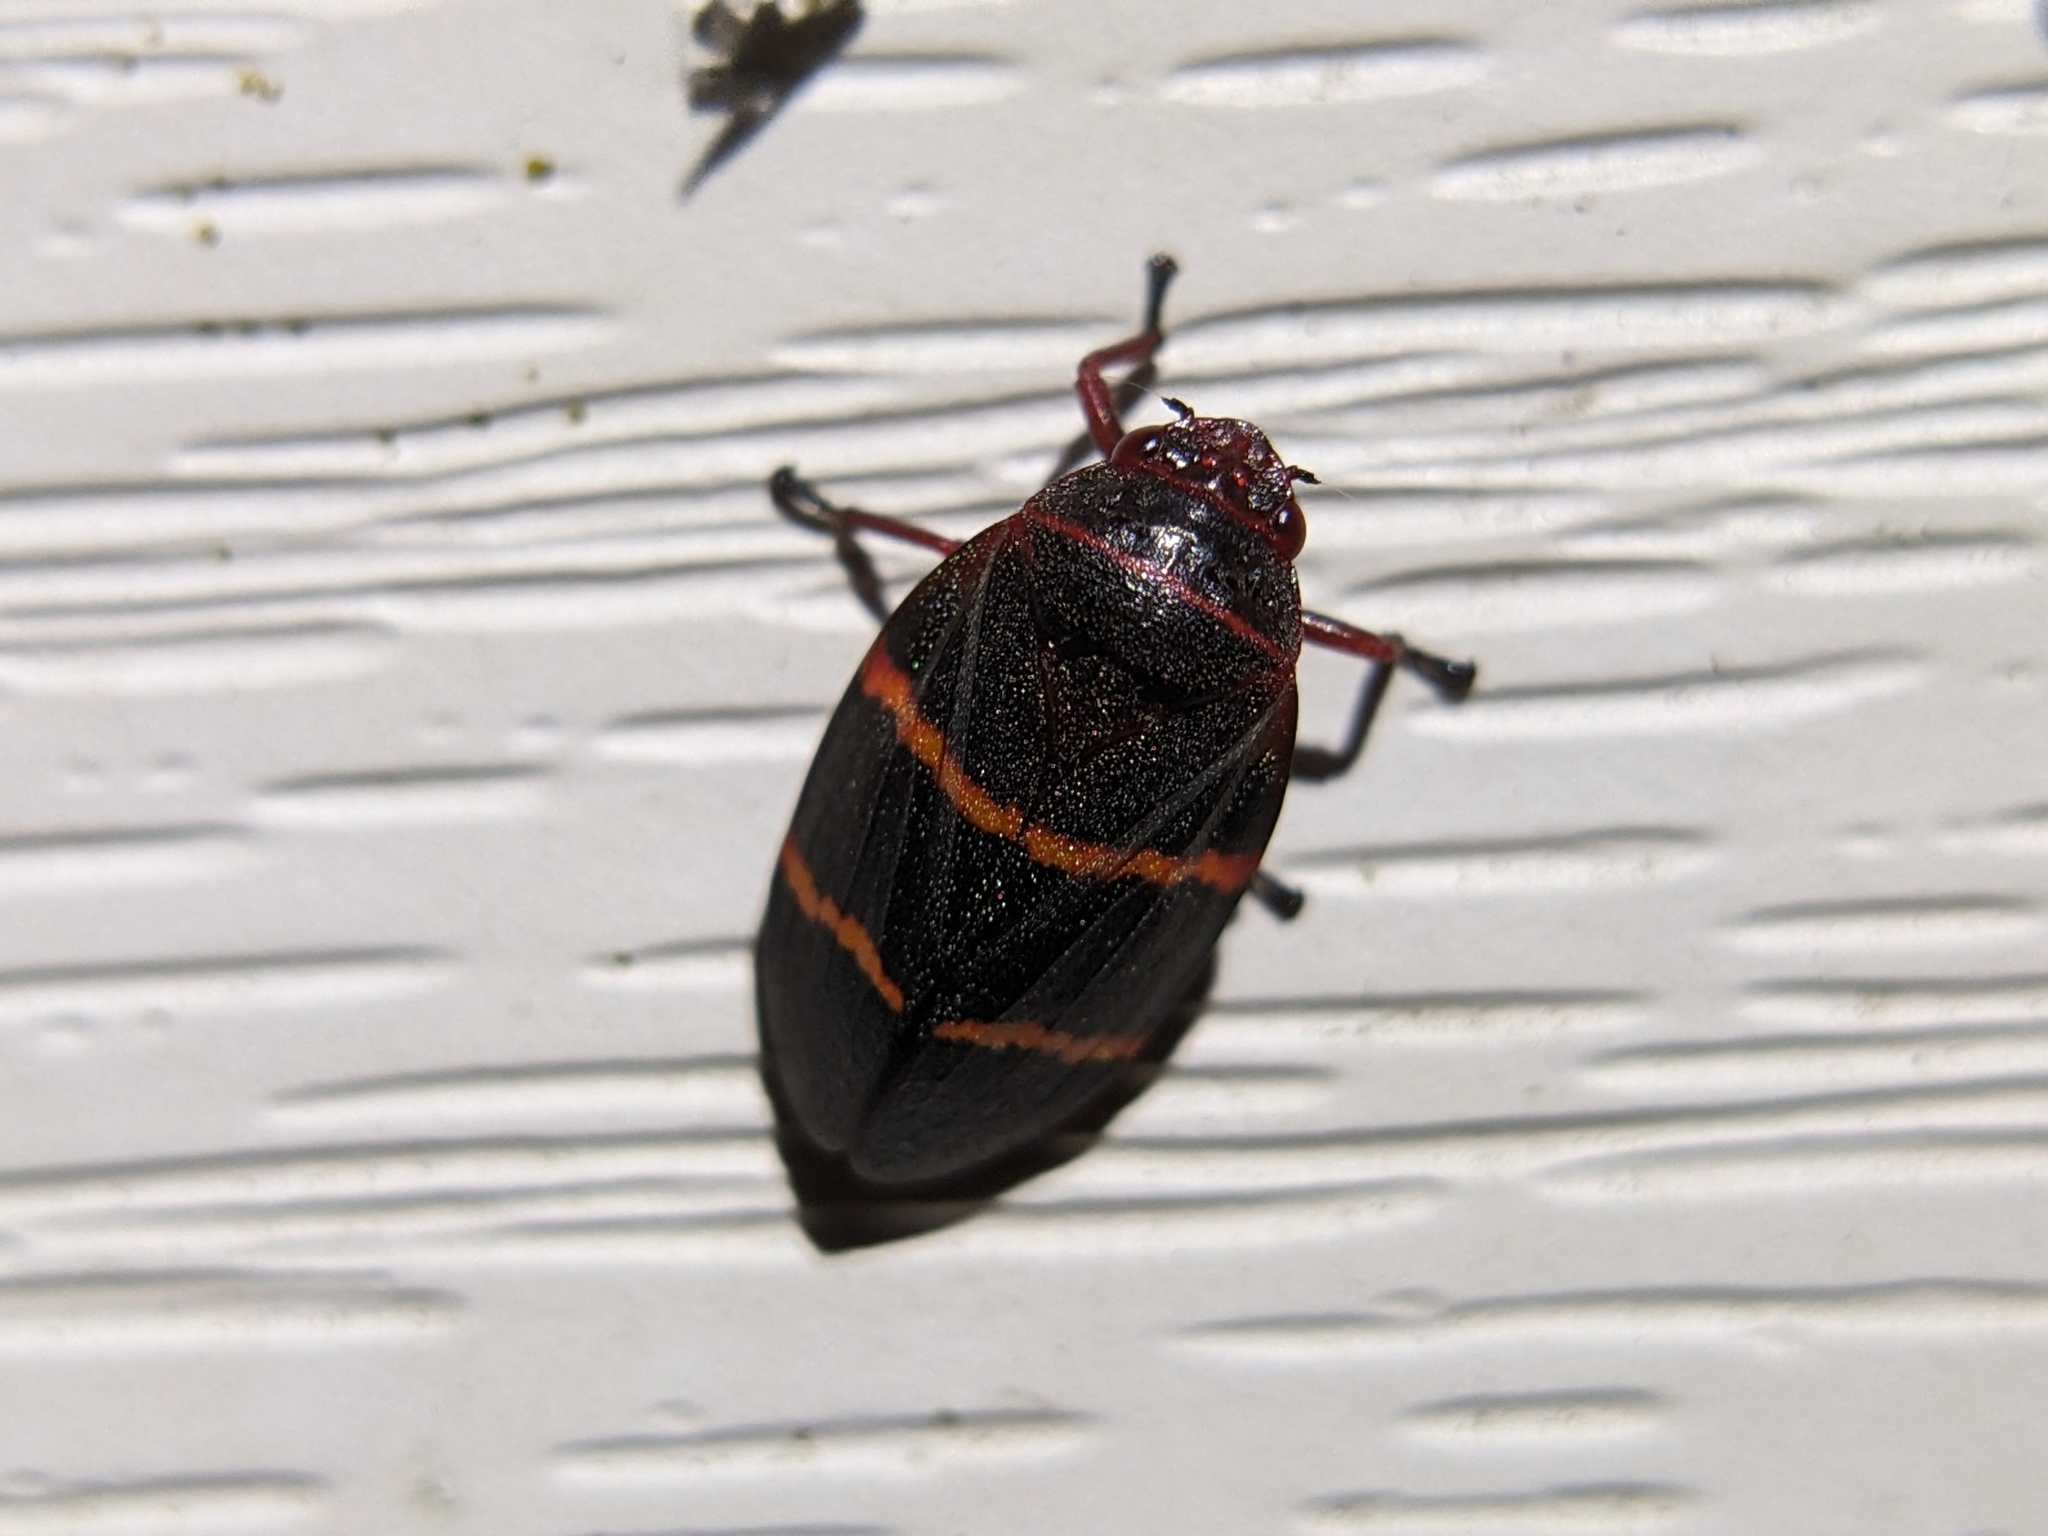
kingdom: Animalia
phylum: Arthropoda
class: Insecta
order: Hemiptera
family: Cercopidae
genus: Prosapia
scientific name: Prosapia bicincta
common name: Twolined spittlebug
